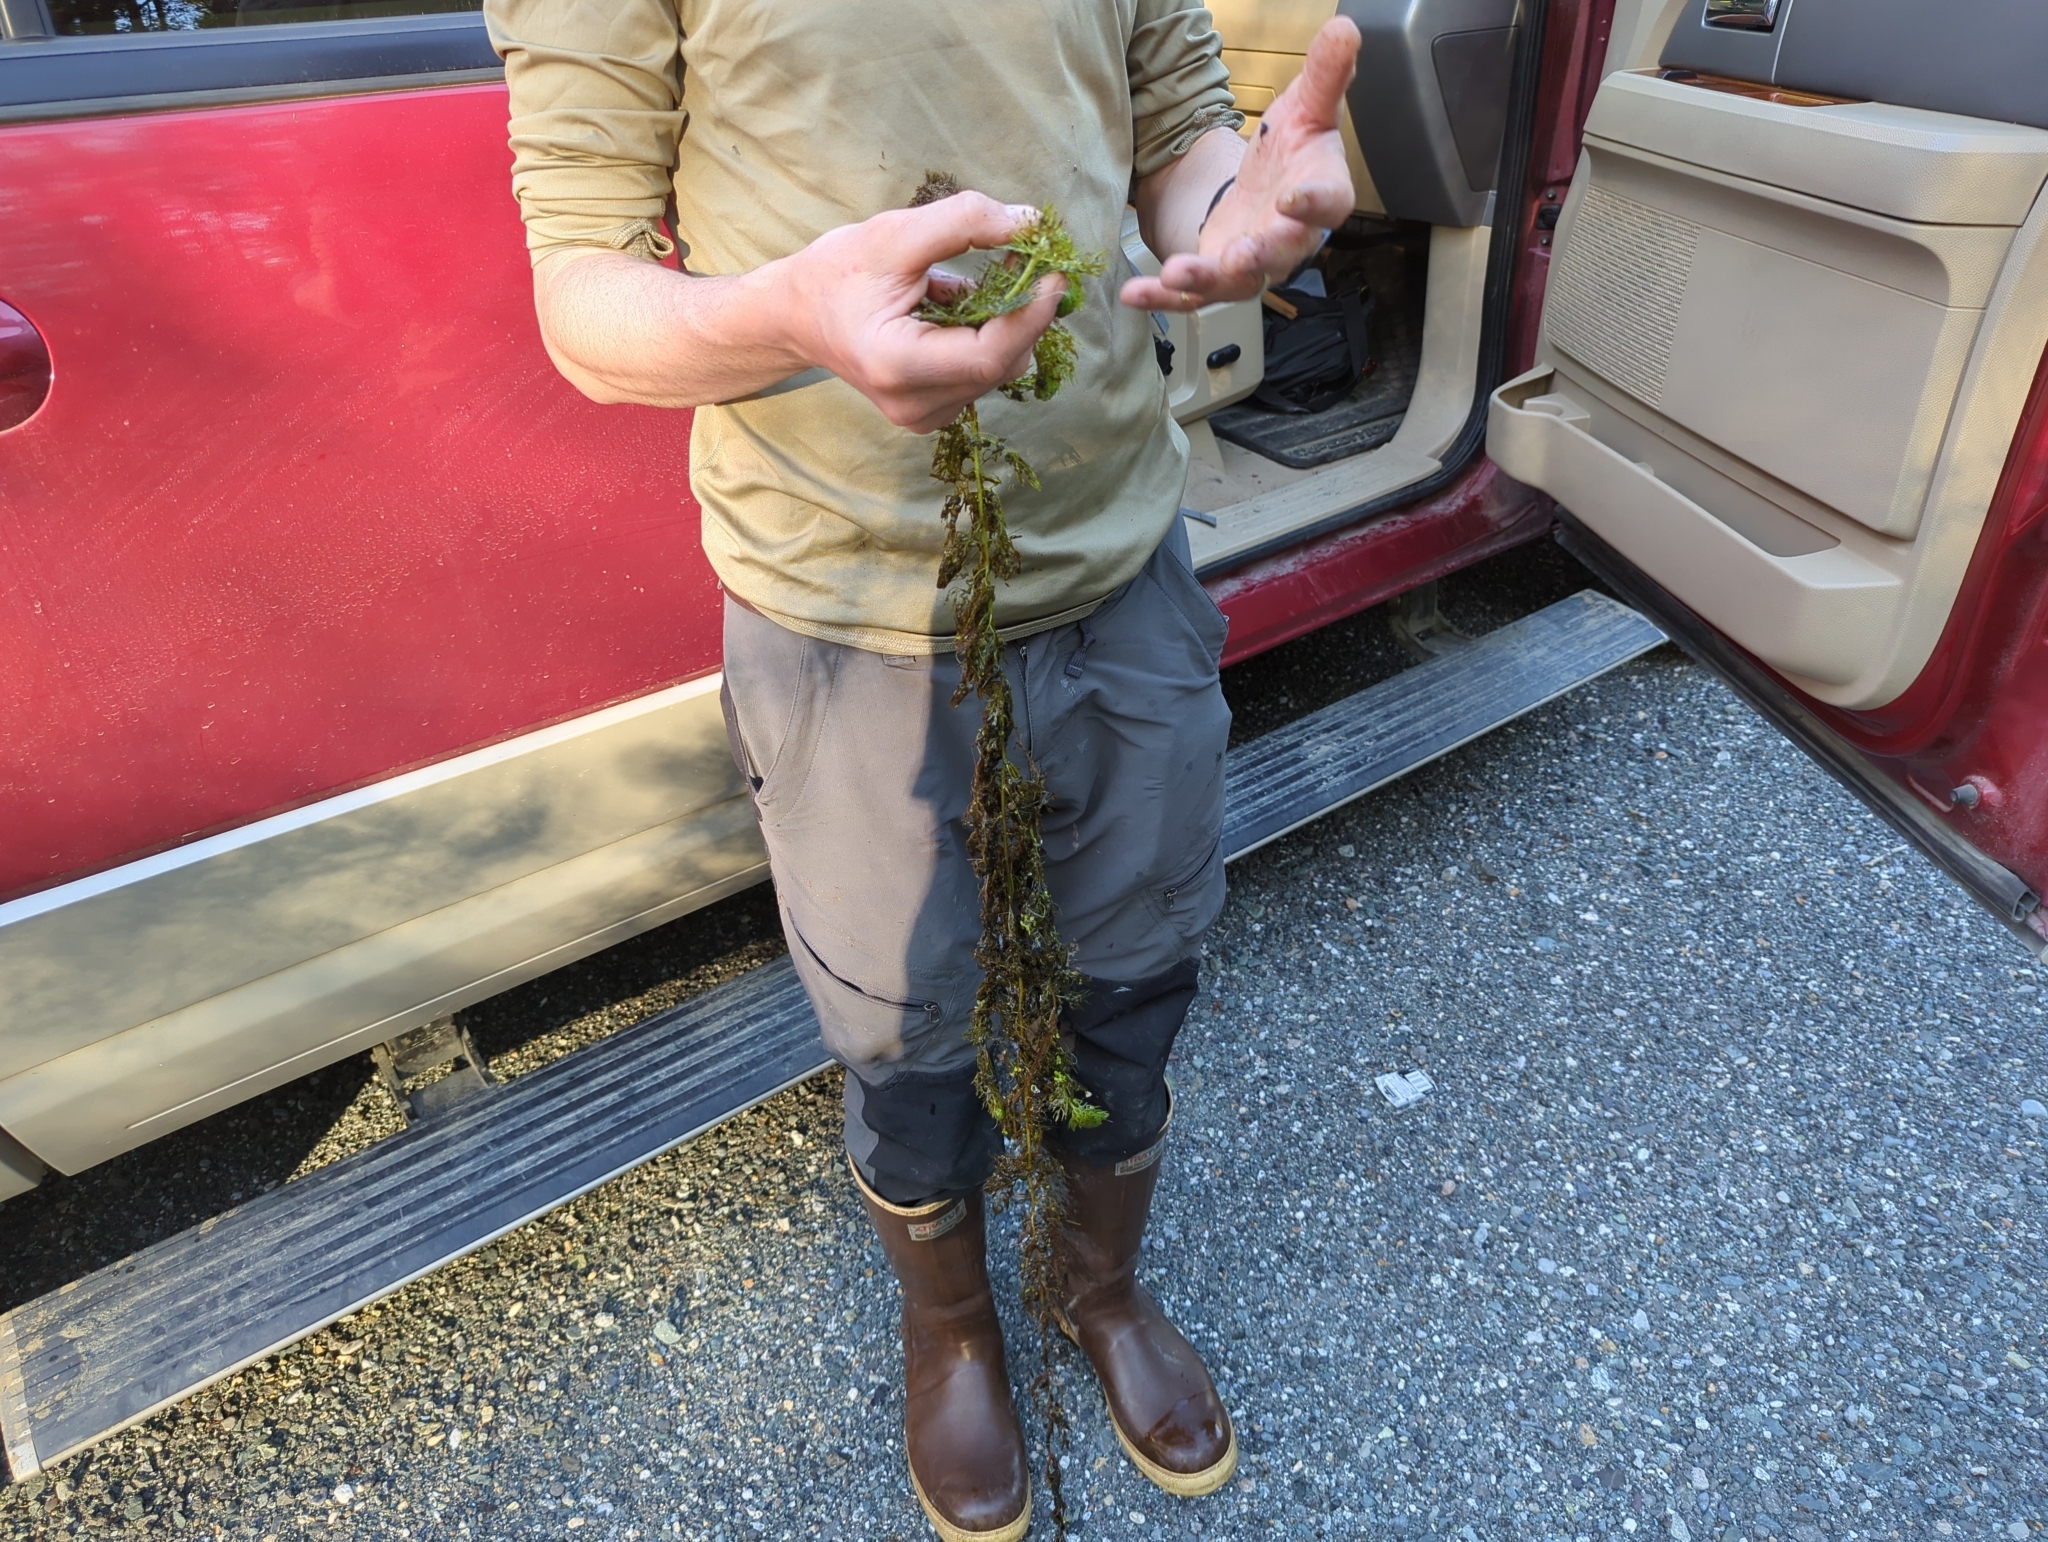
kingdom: Plantae
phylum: Tracheophyta
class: Magnoliopsida
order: Lamiales
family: Lentibulariaceae
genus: Utricularia
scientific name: Utricularia macrorhiza
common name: Common bladderwort
